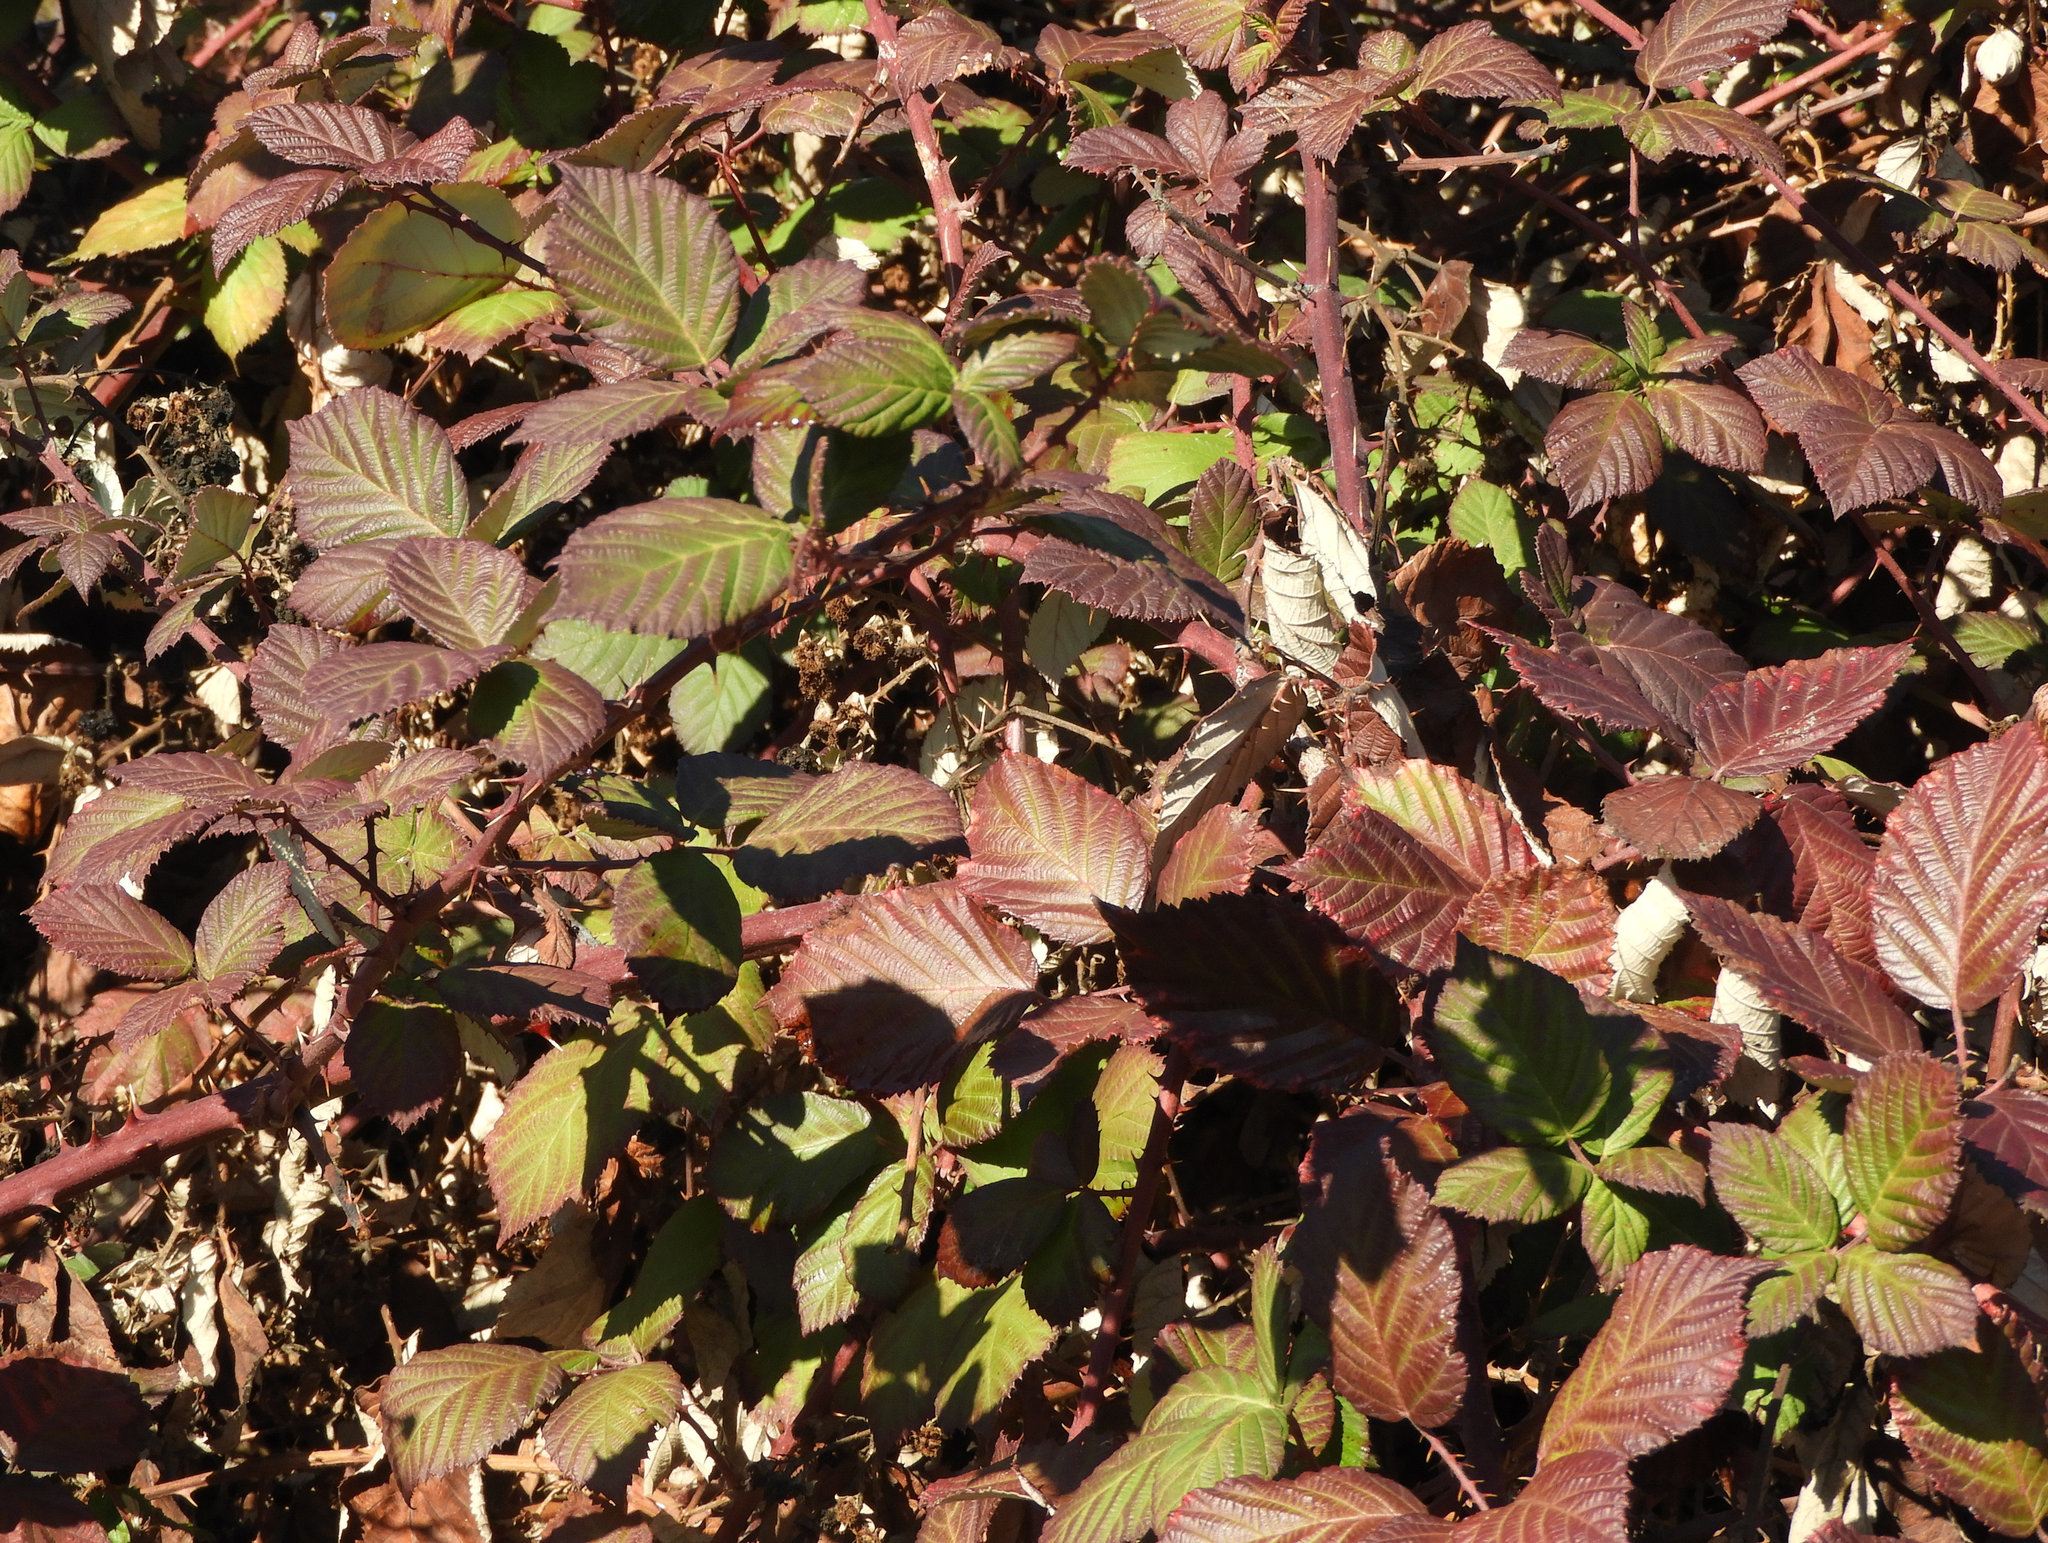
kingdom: Plantae
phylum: Tracheophyta
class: Magnoliopsida
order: Rosales
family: Rosaceae
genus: Rubus
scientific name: Rubus armeniacus
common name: Himalayan blackberry
